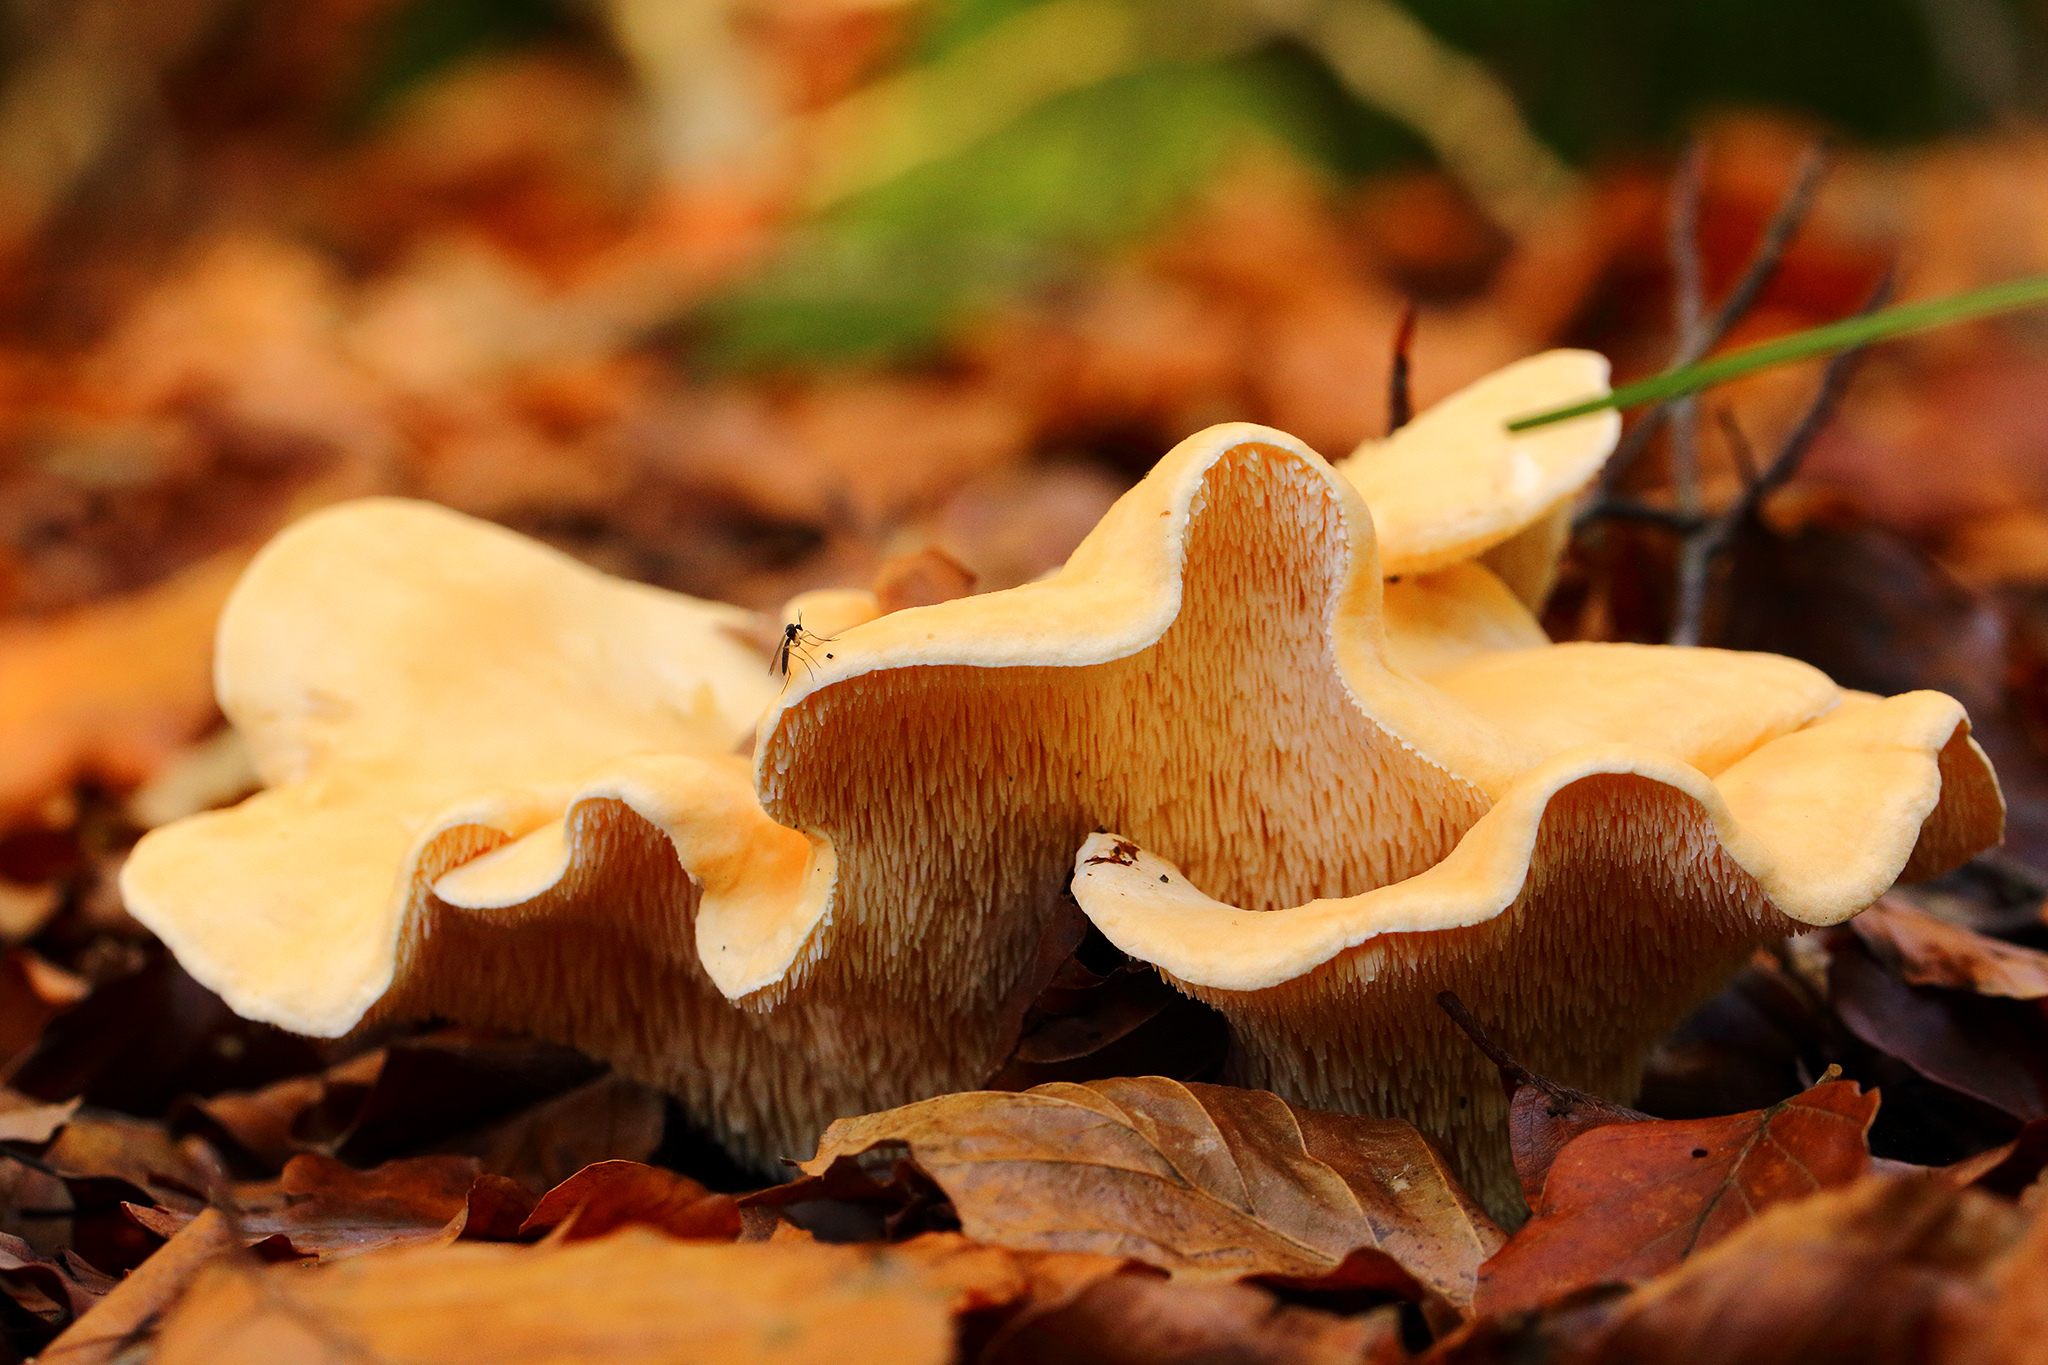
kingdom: Fungi
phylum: Basidiomycota
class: Agaricomycetes
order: Cantharellales
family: Hydnaceae
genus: Hydnum
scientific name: Hydnum repandum
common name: Wood hedgehog
